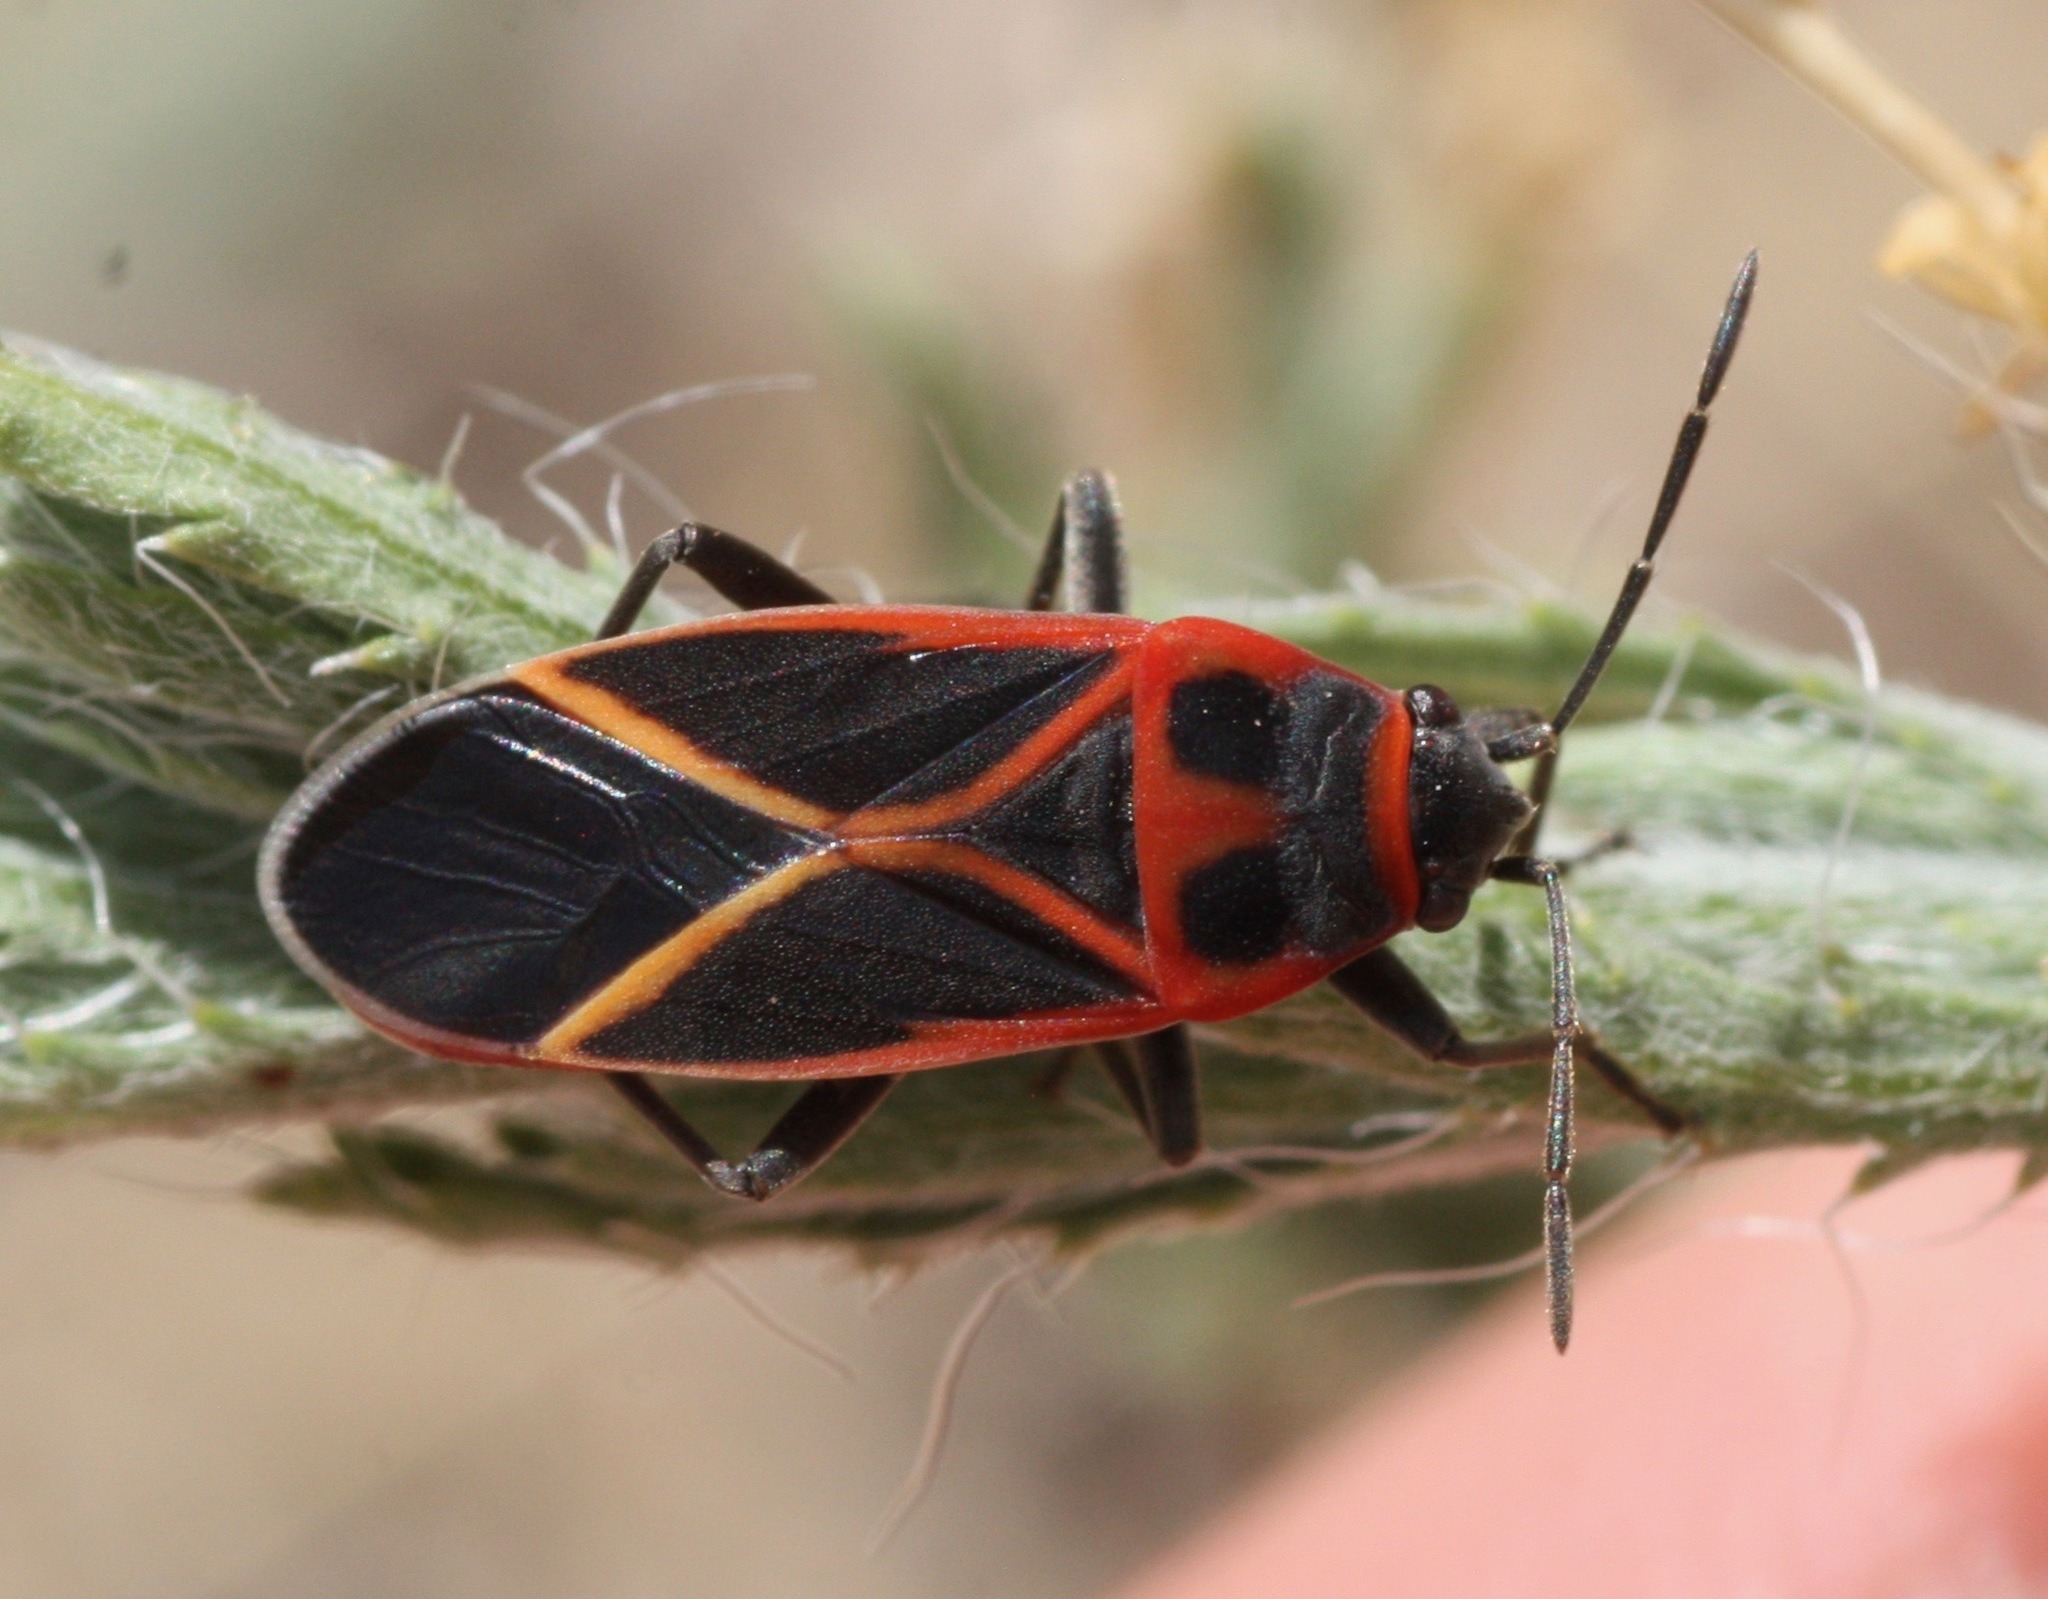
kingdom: Animalia
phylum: Arthropoda
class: Insecta
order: Hemiptera
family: Lygaeidae
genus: Ochrostomus
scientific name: Ochrostomus uhleri
